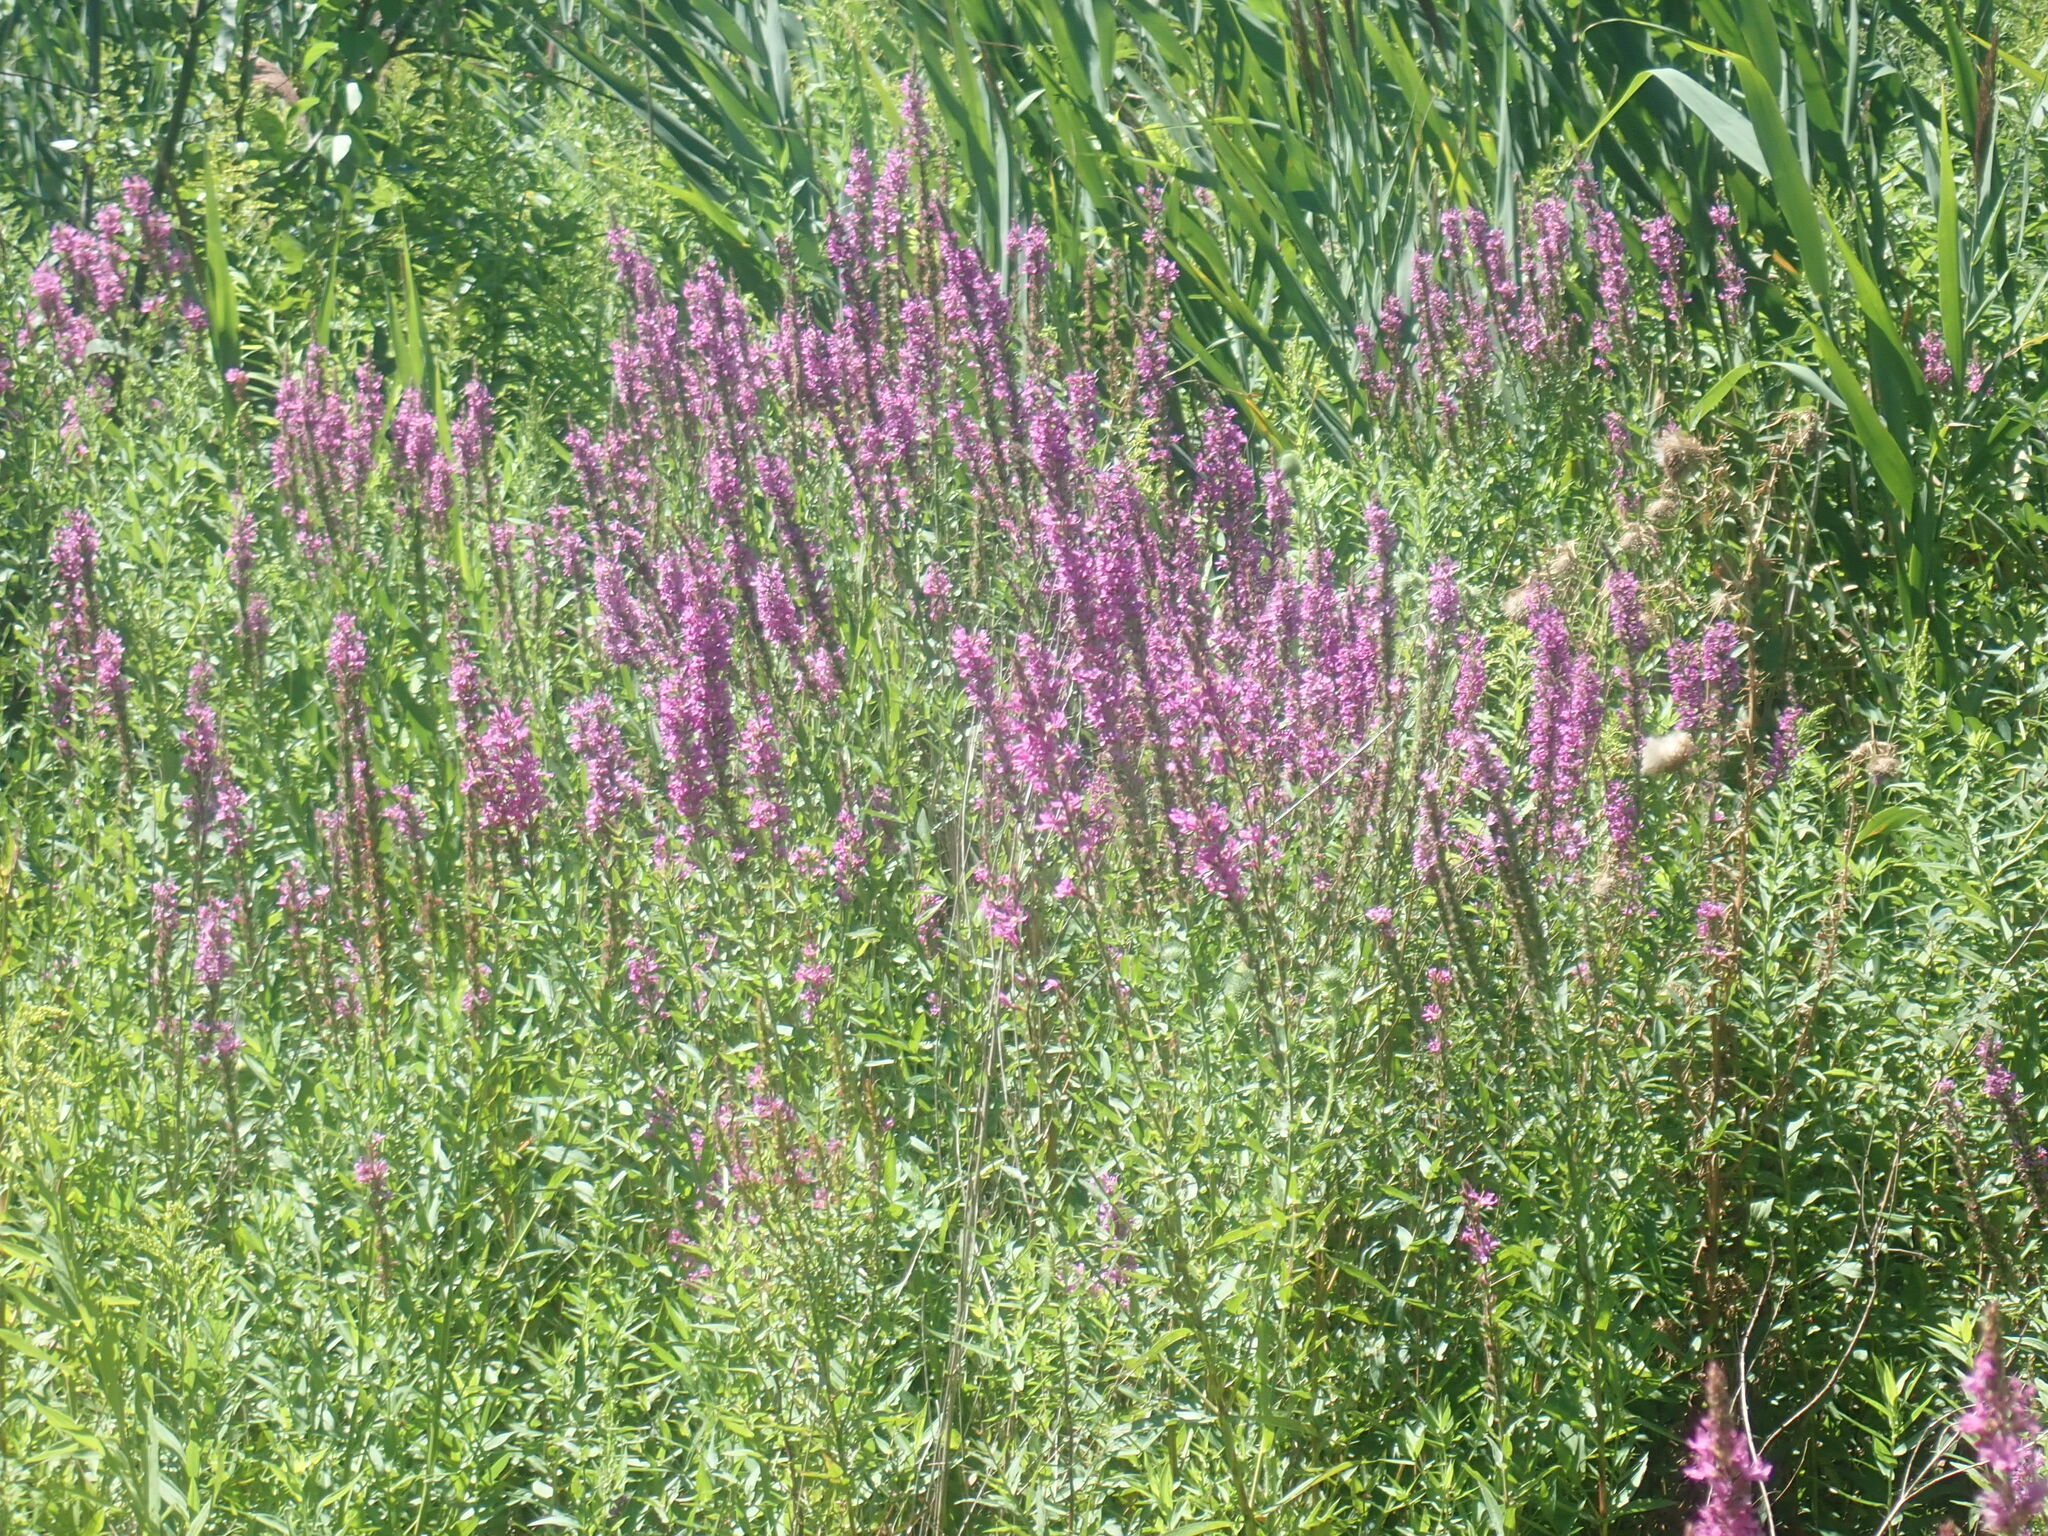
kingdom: Plantae
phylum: Tracheophyta
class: Magnoliopsida
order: Myrtales
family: Lythraceae
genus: Lythrum
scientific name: Lythrum salicaria
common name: Purple loosestrife
